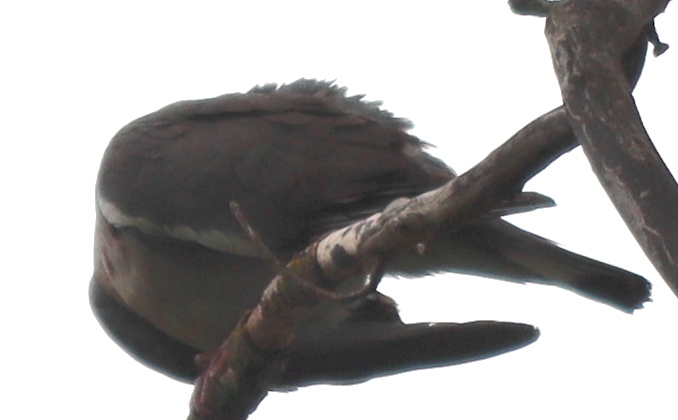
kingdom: Animalia
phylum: Chordata
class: Aves
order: Columbiformes
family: Columbidae
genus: Columba
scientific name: Columba palumbus
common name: Common wood pigeon
